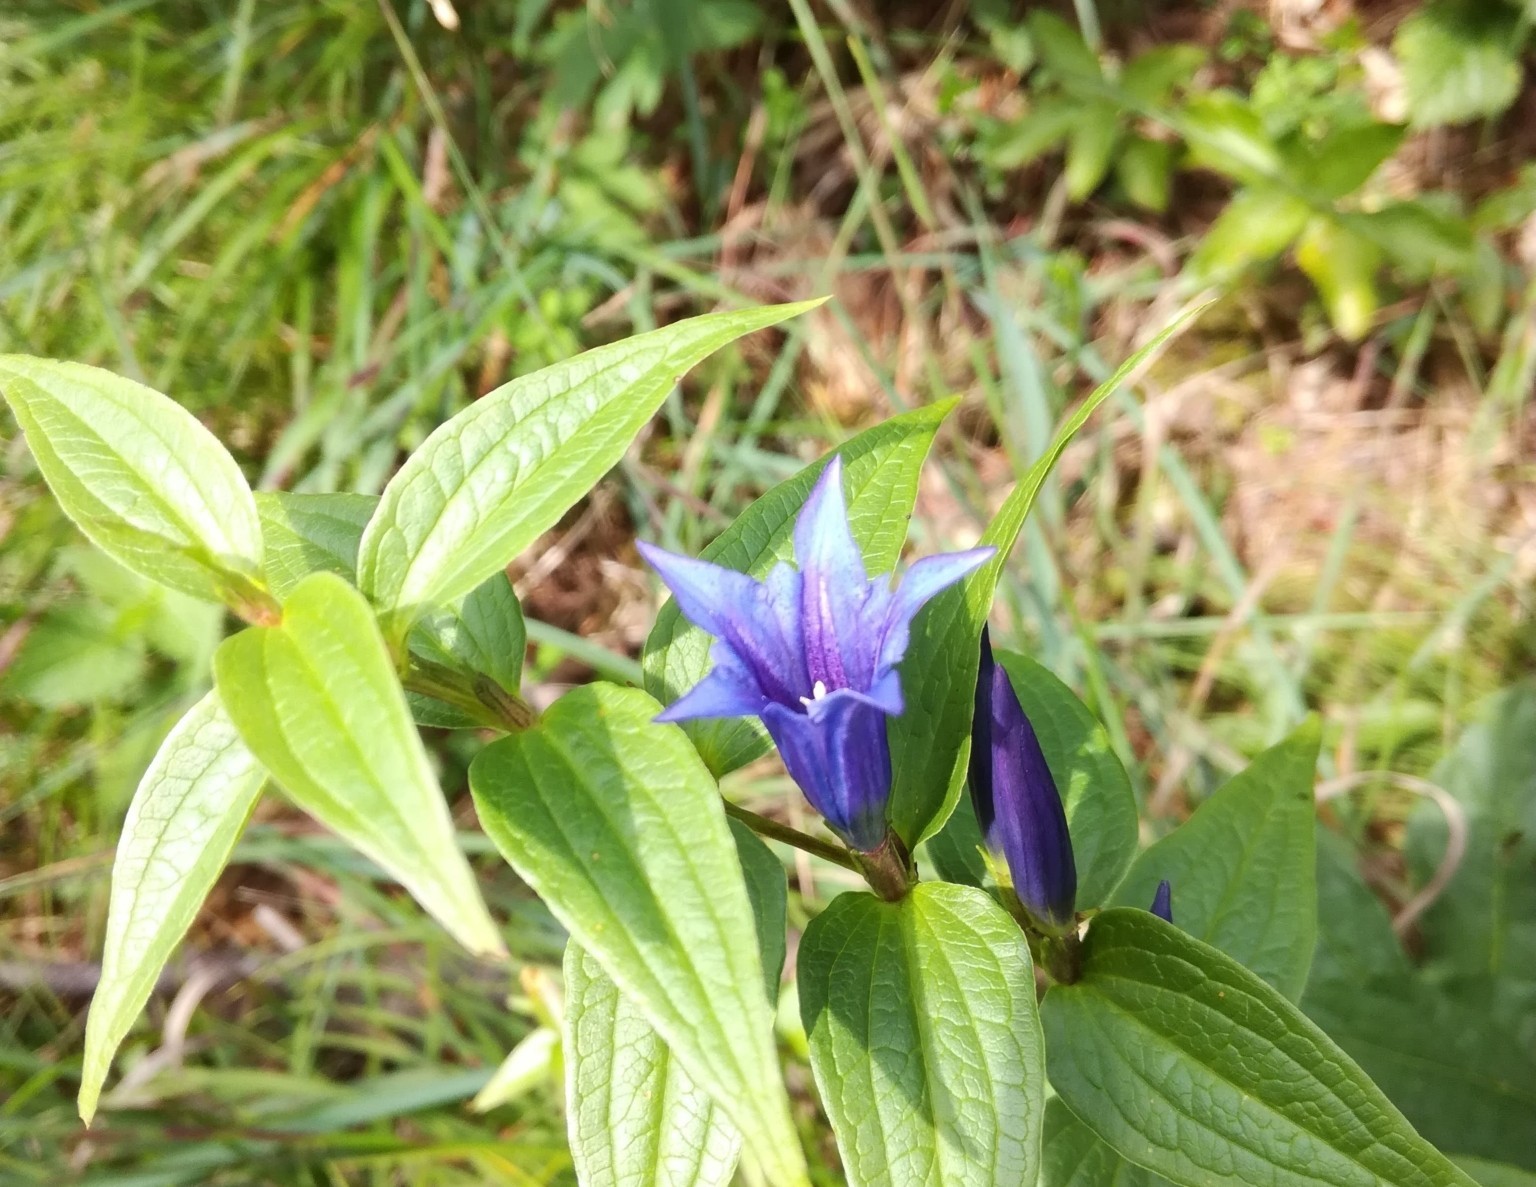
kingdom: Plantae
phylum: Tracheophyta
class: Magnoliopsida
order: Gentianales
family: Gentianaceae
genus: Gentiana
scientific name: Gentiana asclepiadea
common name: Willow gentian
